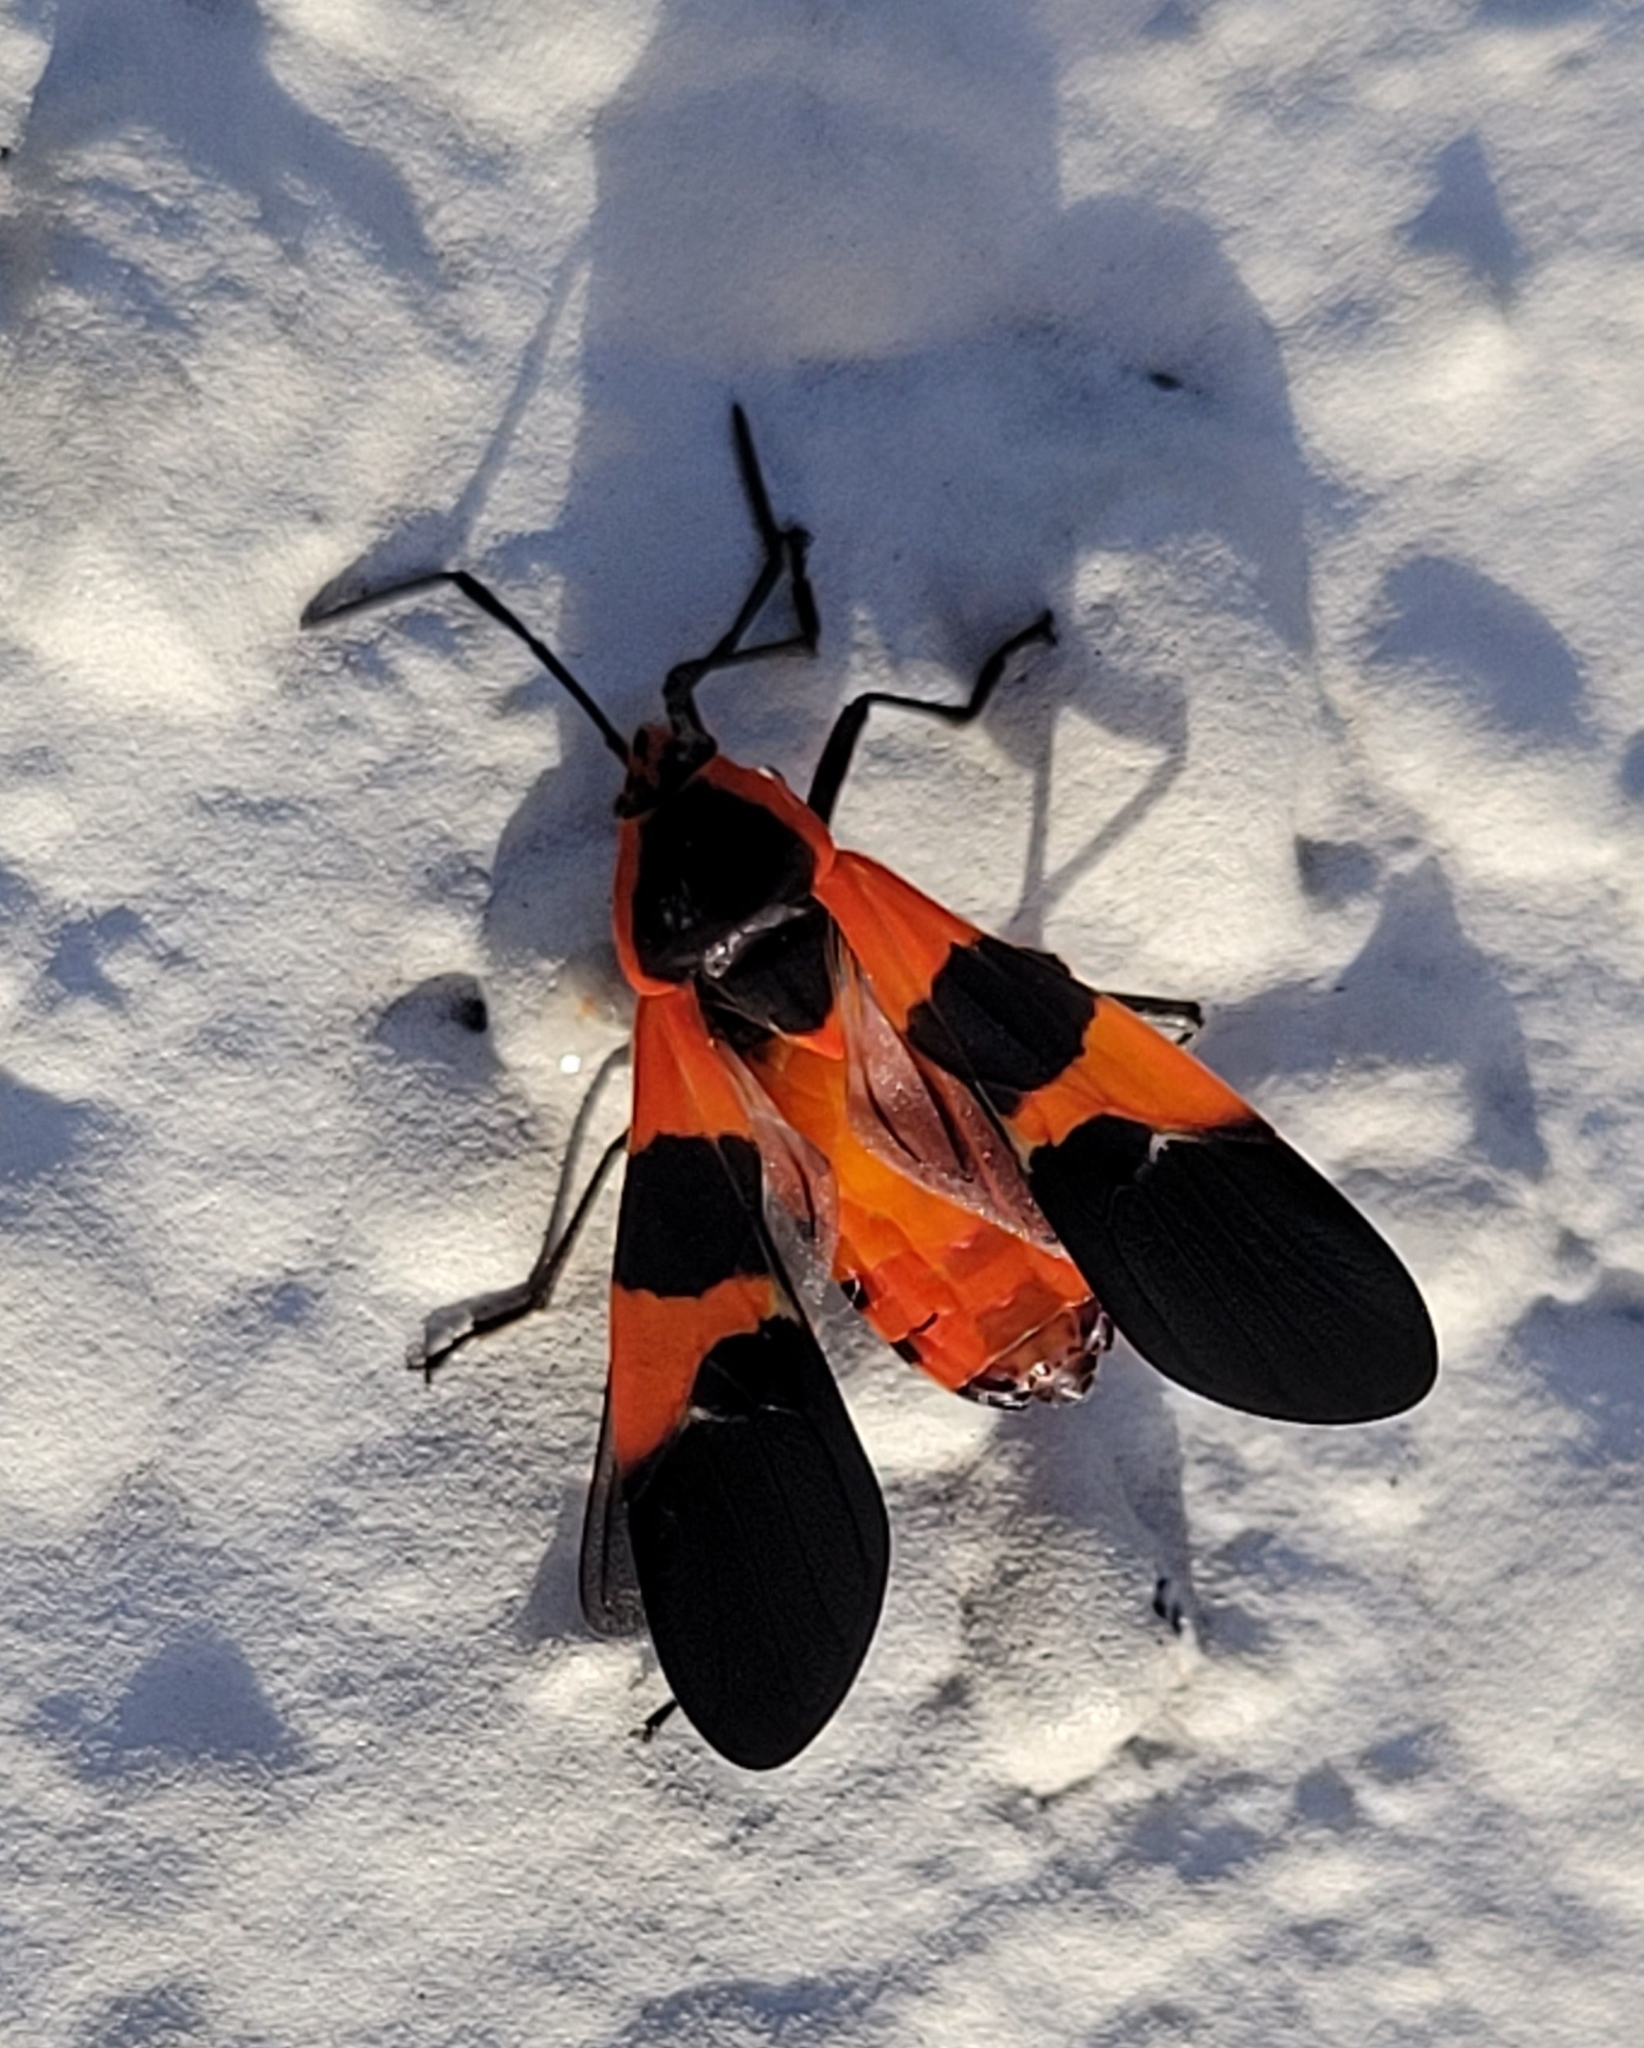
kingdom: Animalia
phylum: Arthropoda
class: Insecta
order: Hemiptera
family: Lygaeidae
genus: Oncopeltus
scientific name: Oncopeltus fasciatus
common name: Large milkweed bug
